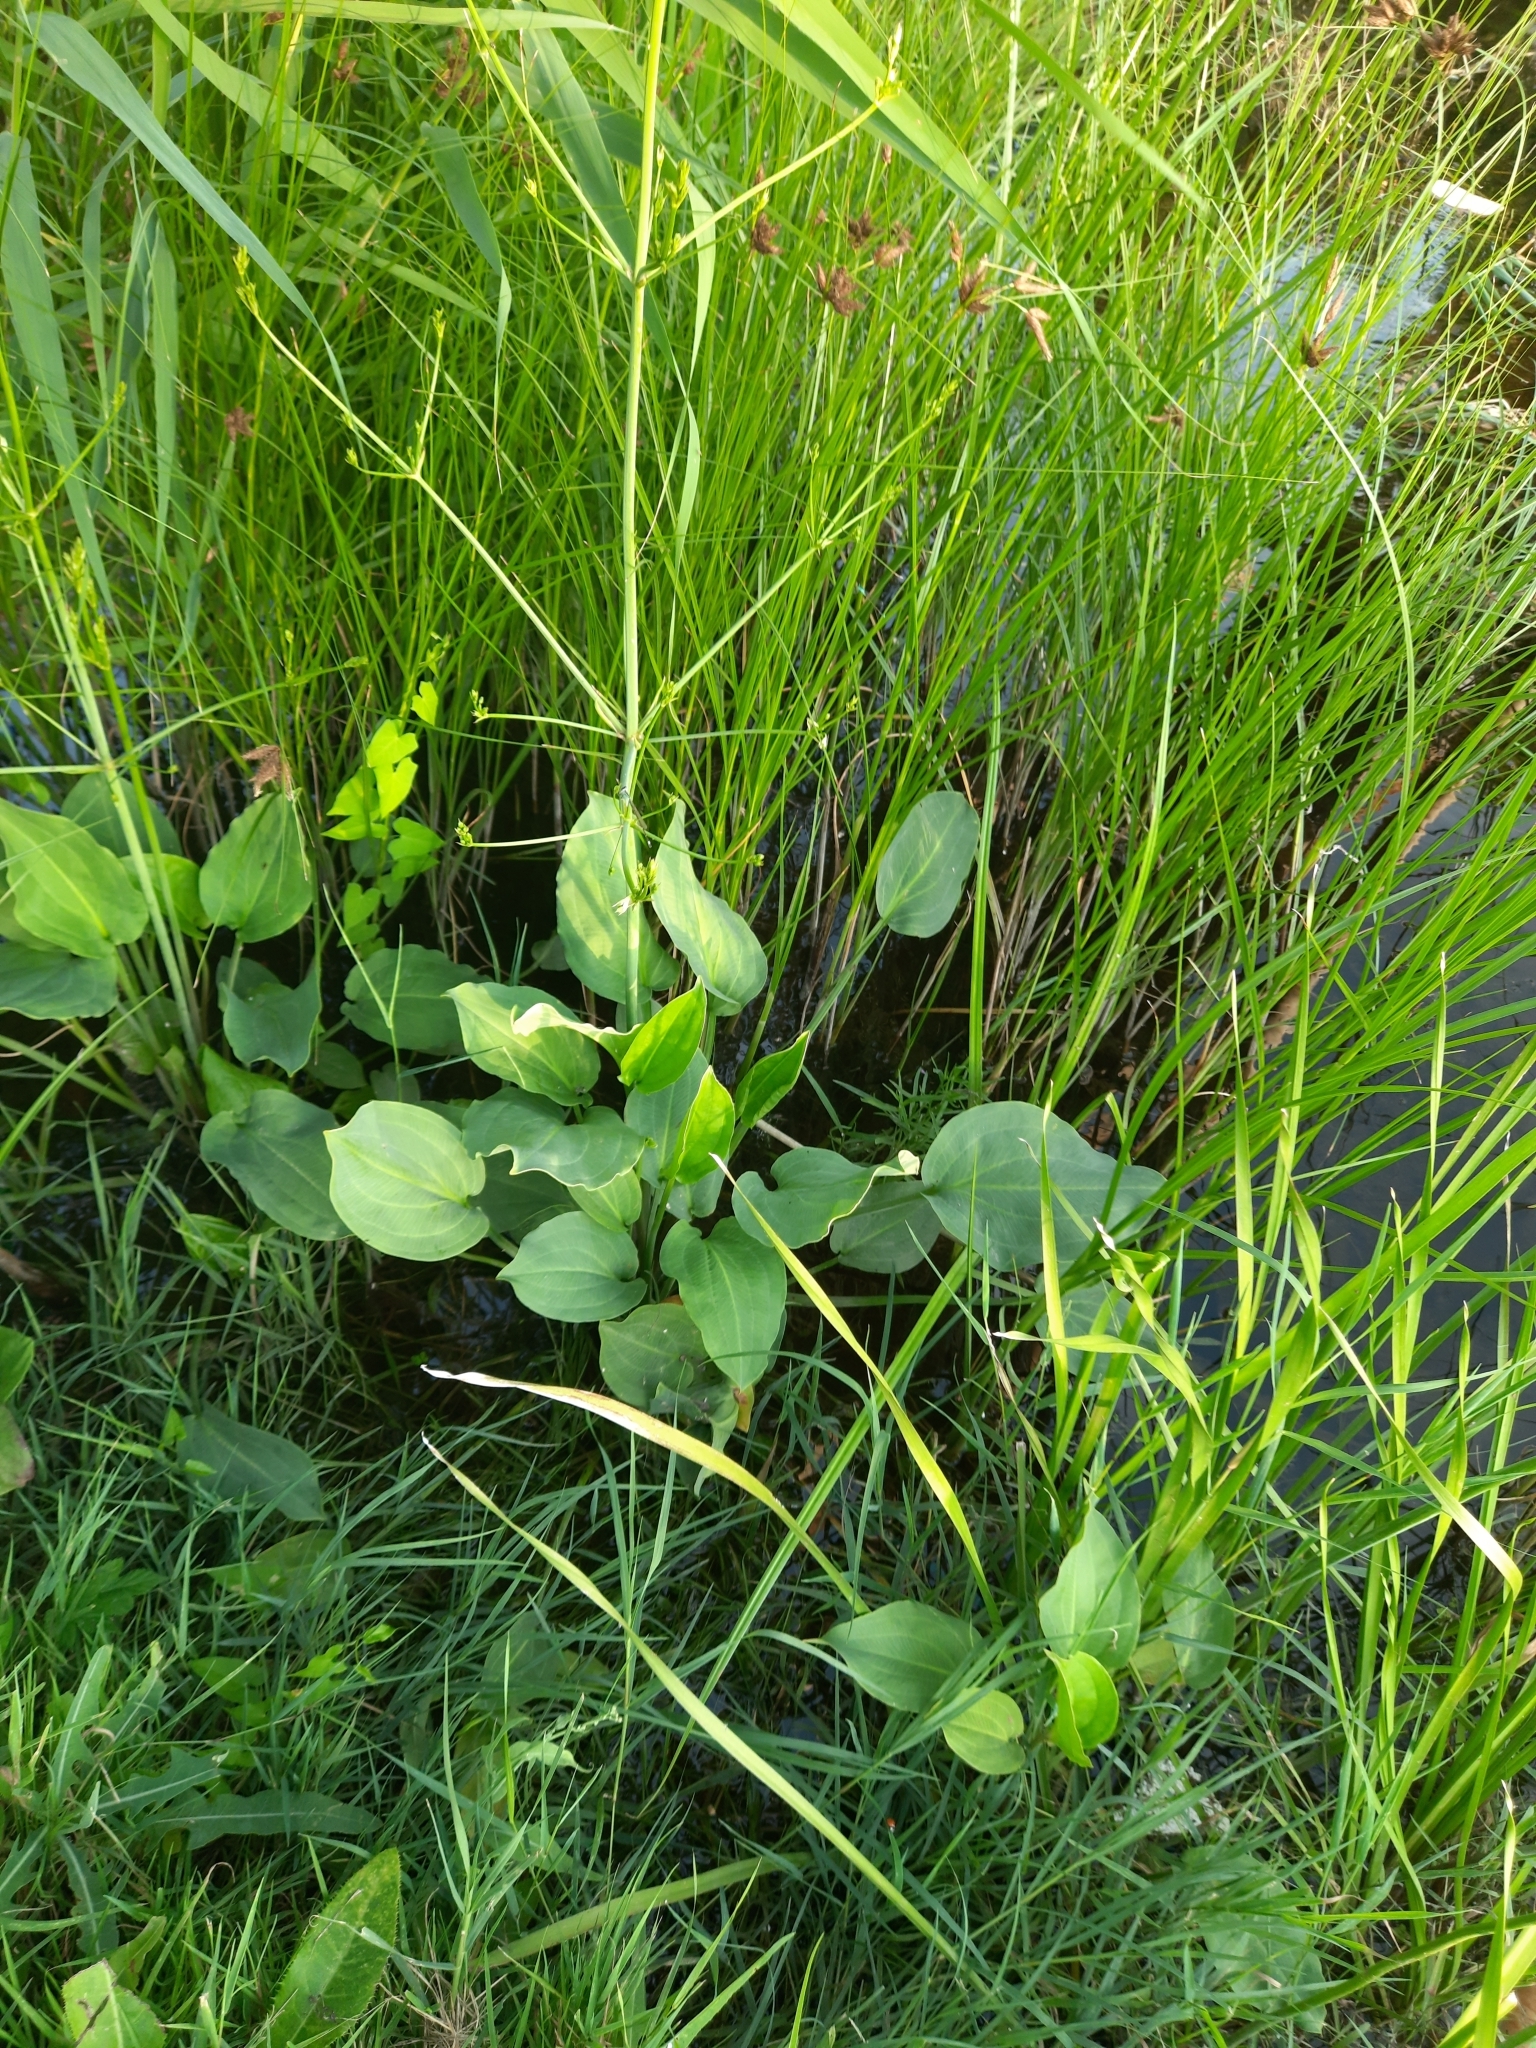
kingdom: Plantae
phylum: Tracheophyta
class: Liliopsida
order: Alismatales
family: Alismataceae
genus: Alisma
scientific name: Alisma plantago-aquatica
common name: Water-plantain
